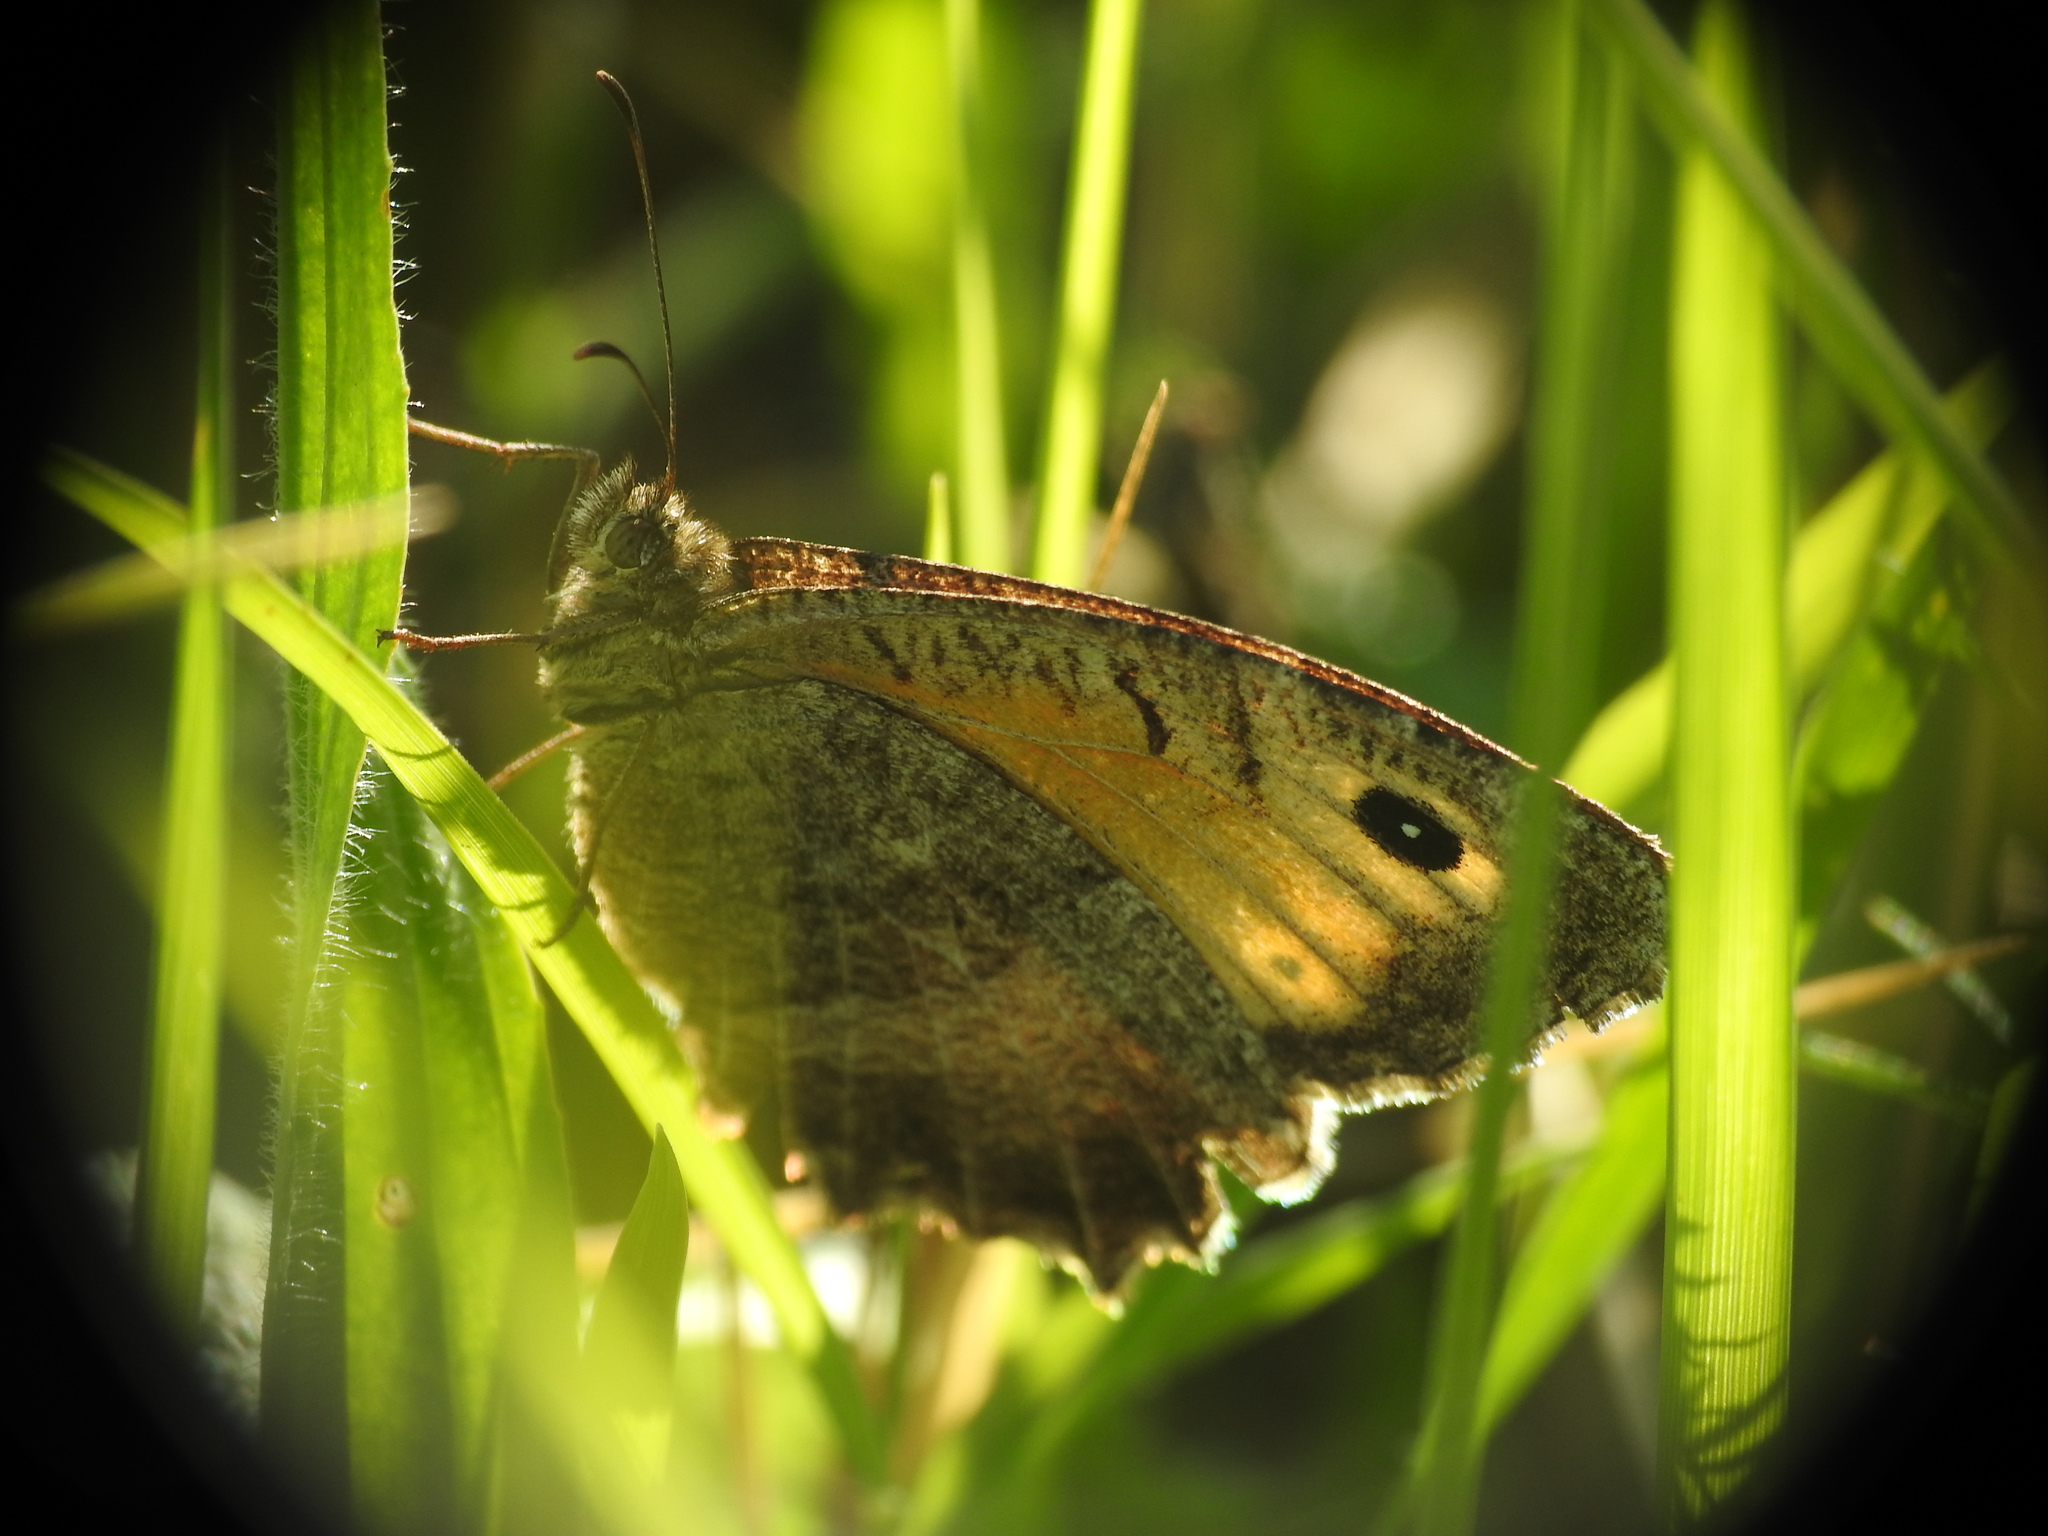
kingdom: Animalia
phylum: Arthropoda
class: Insecta
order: Lepidoptera
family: Nymphalidae
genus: Arethusana
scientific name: Arethusana arethusa
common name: False grayling
